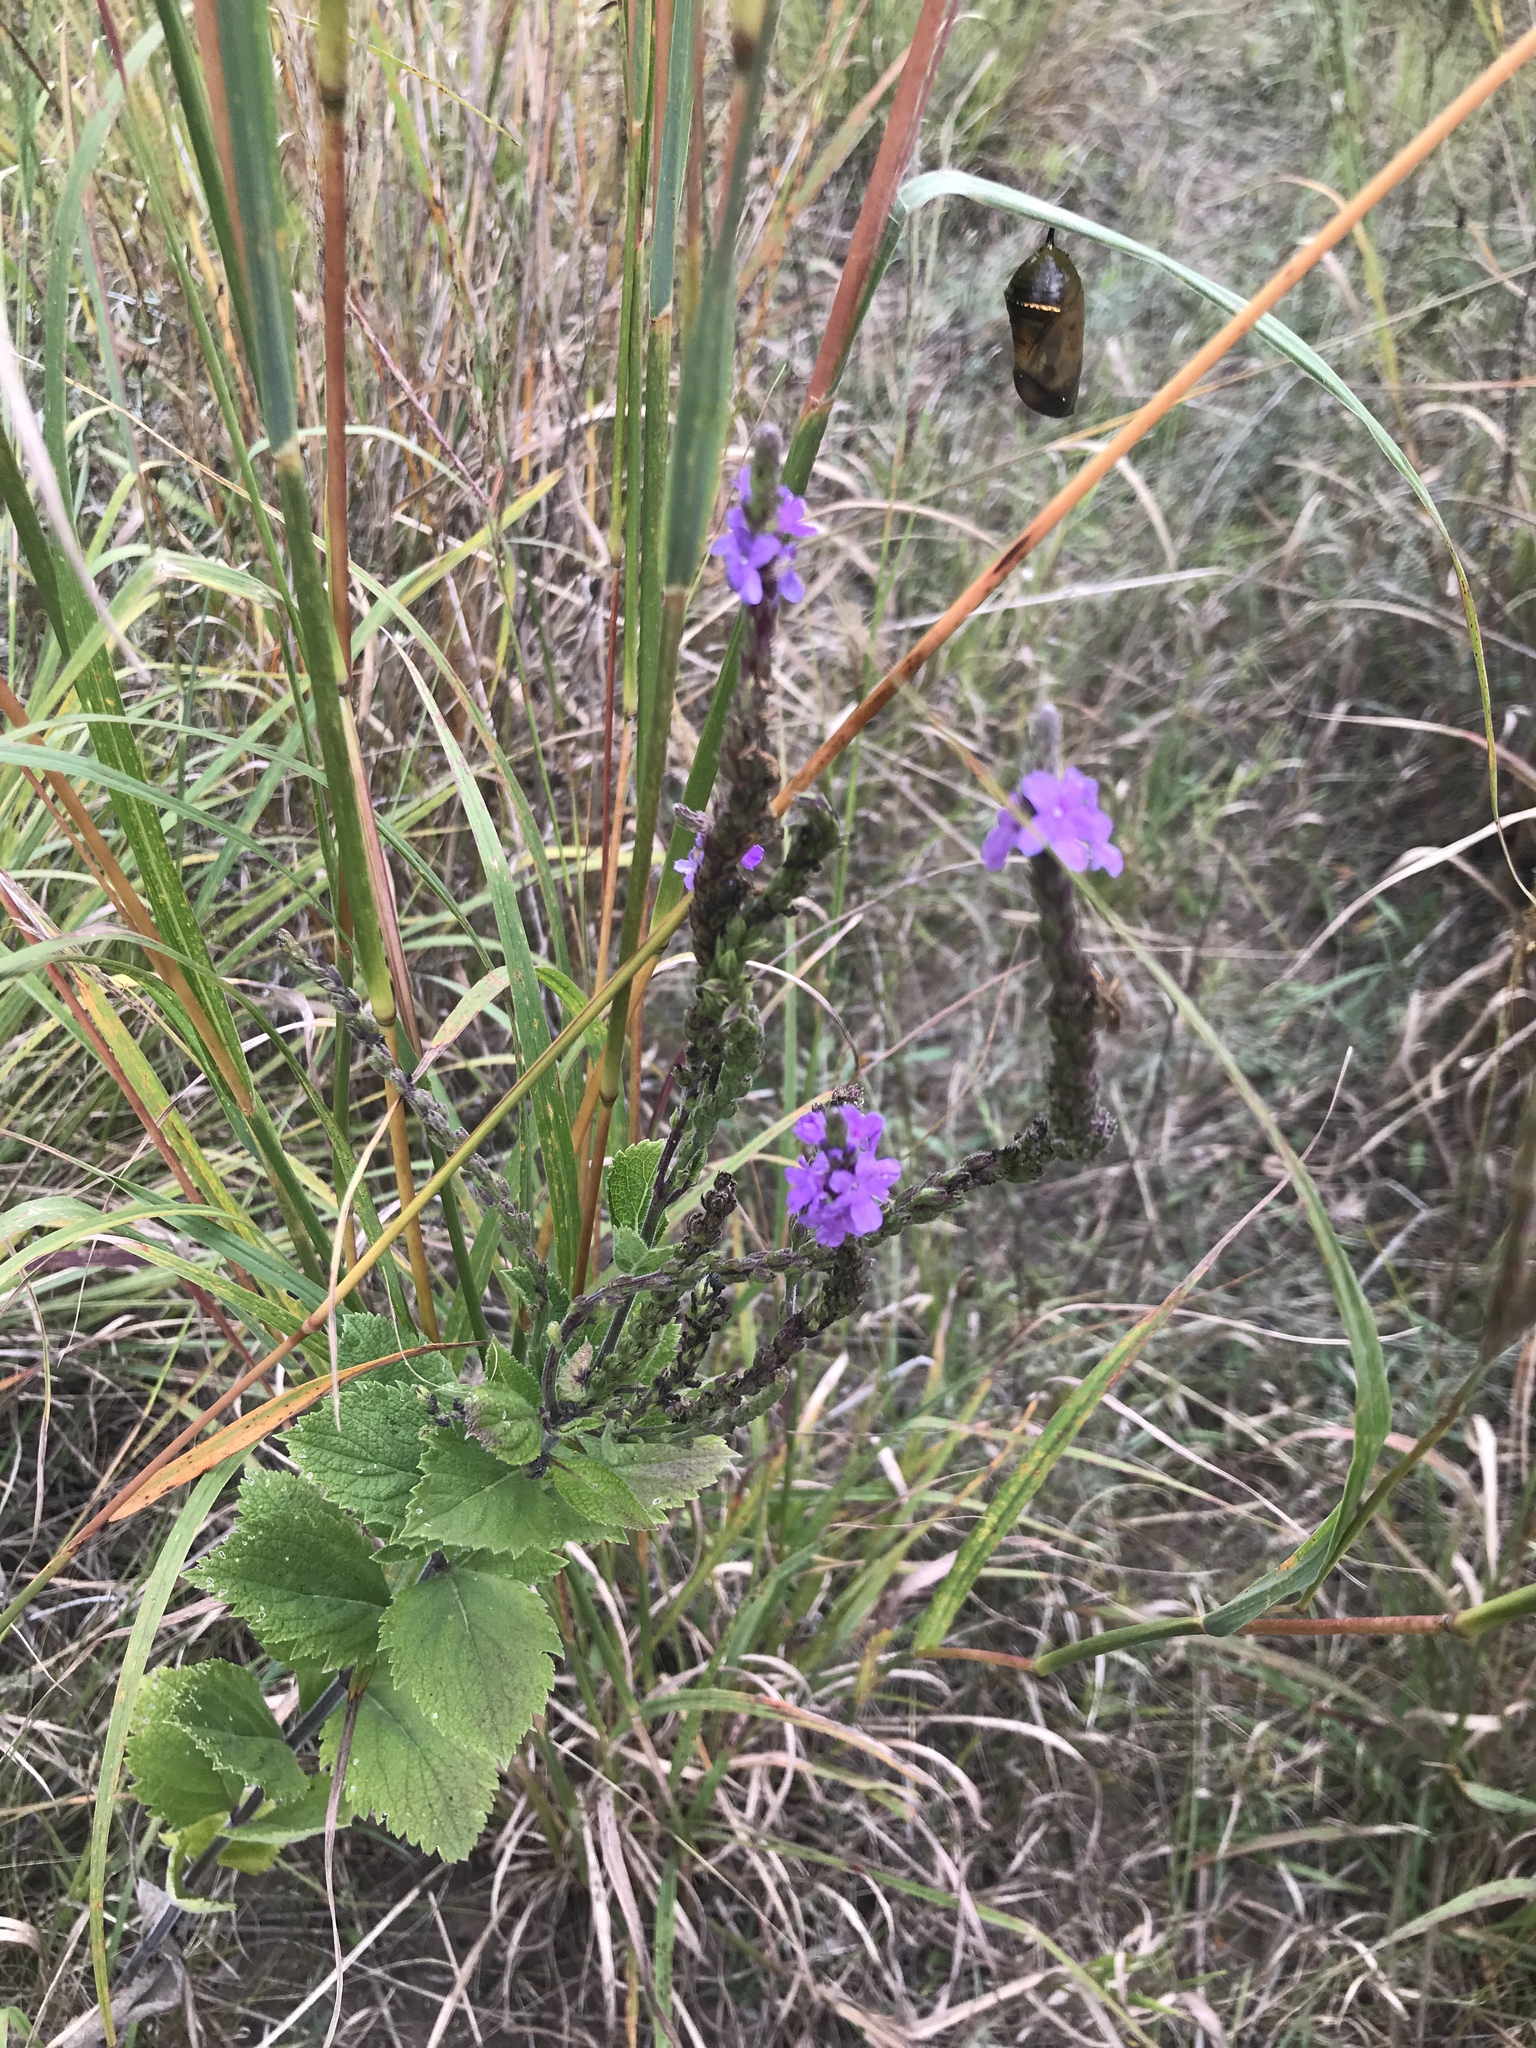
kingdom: Plantae
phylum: Tracheophyta
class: Magnoliopsida
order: Lamiales
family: Verbenaceae
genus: Verbena
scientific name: Verbena stricta
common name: Hoary vervain
